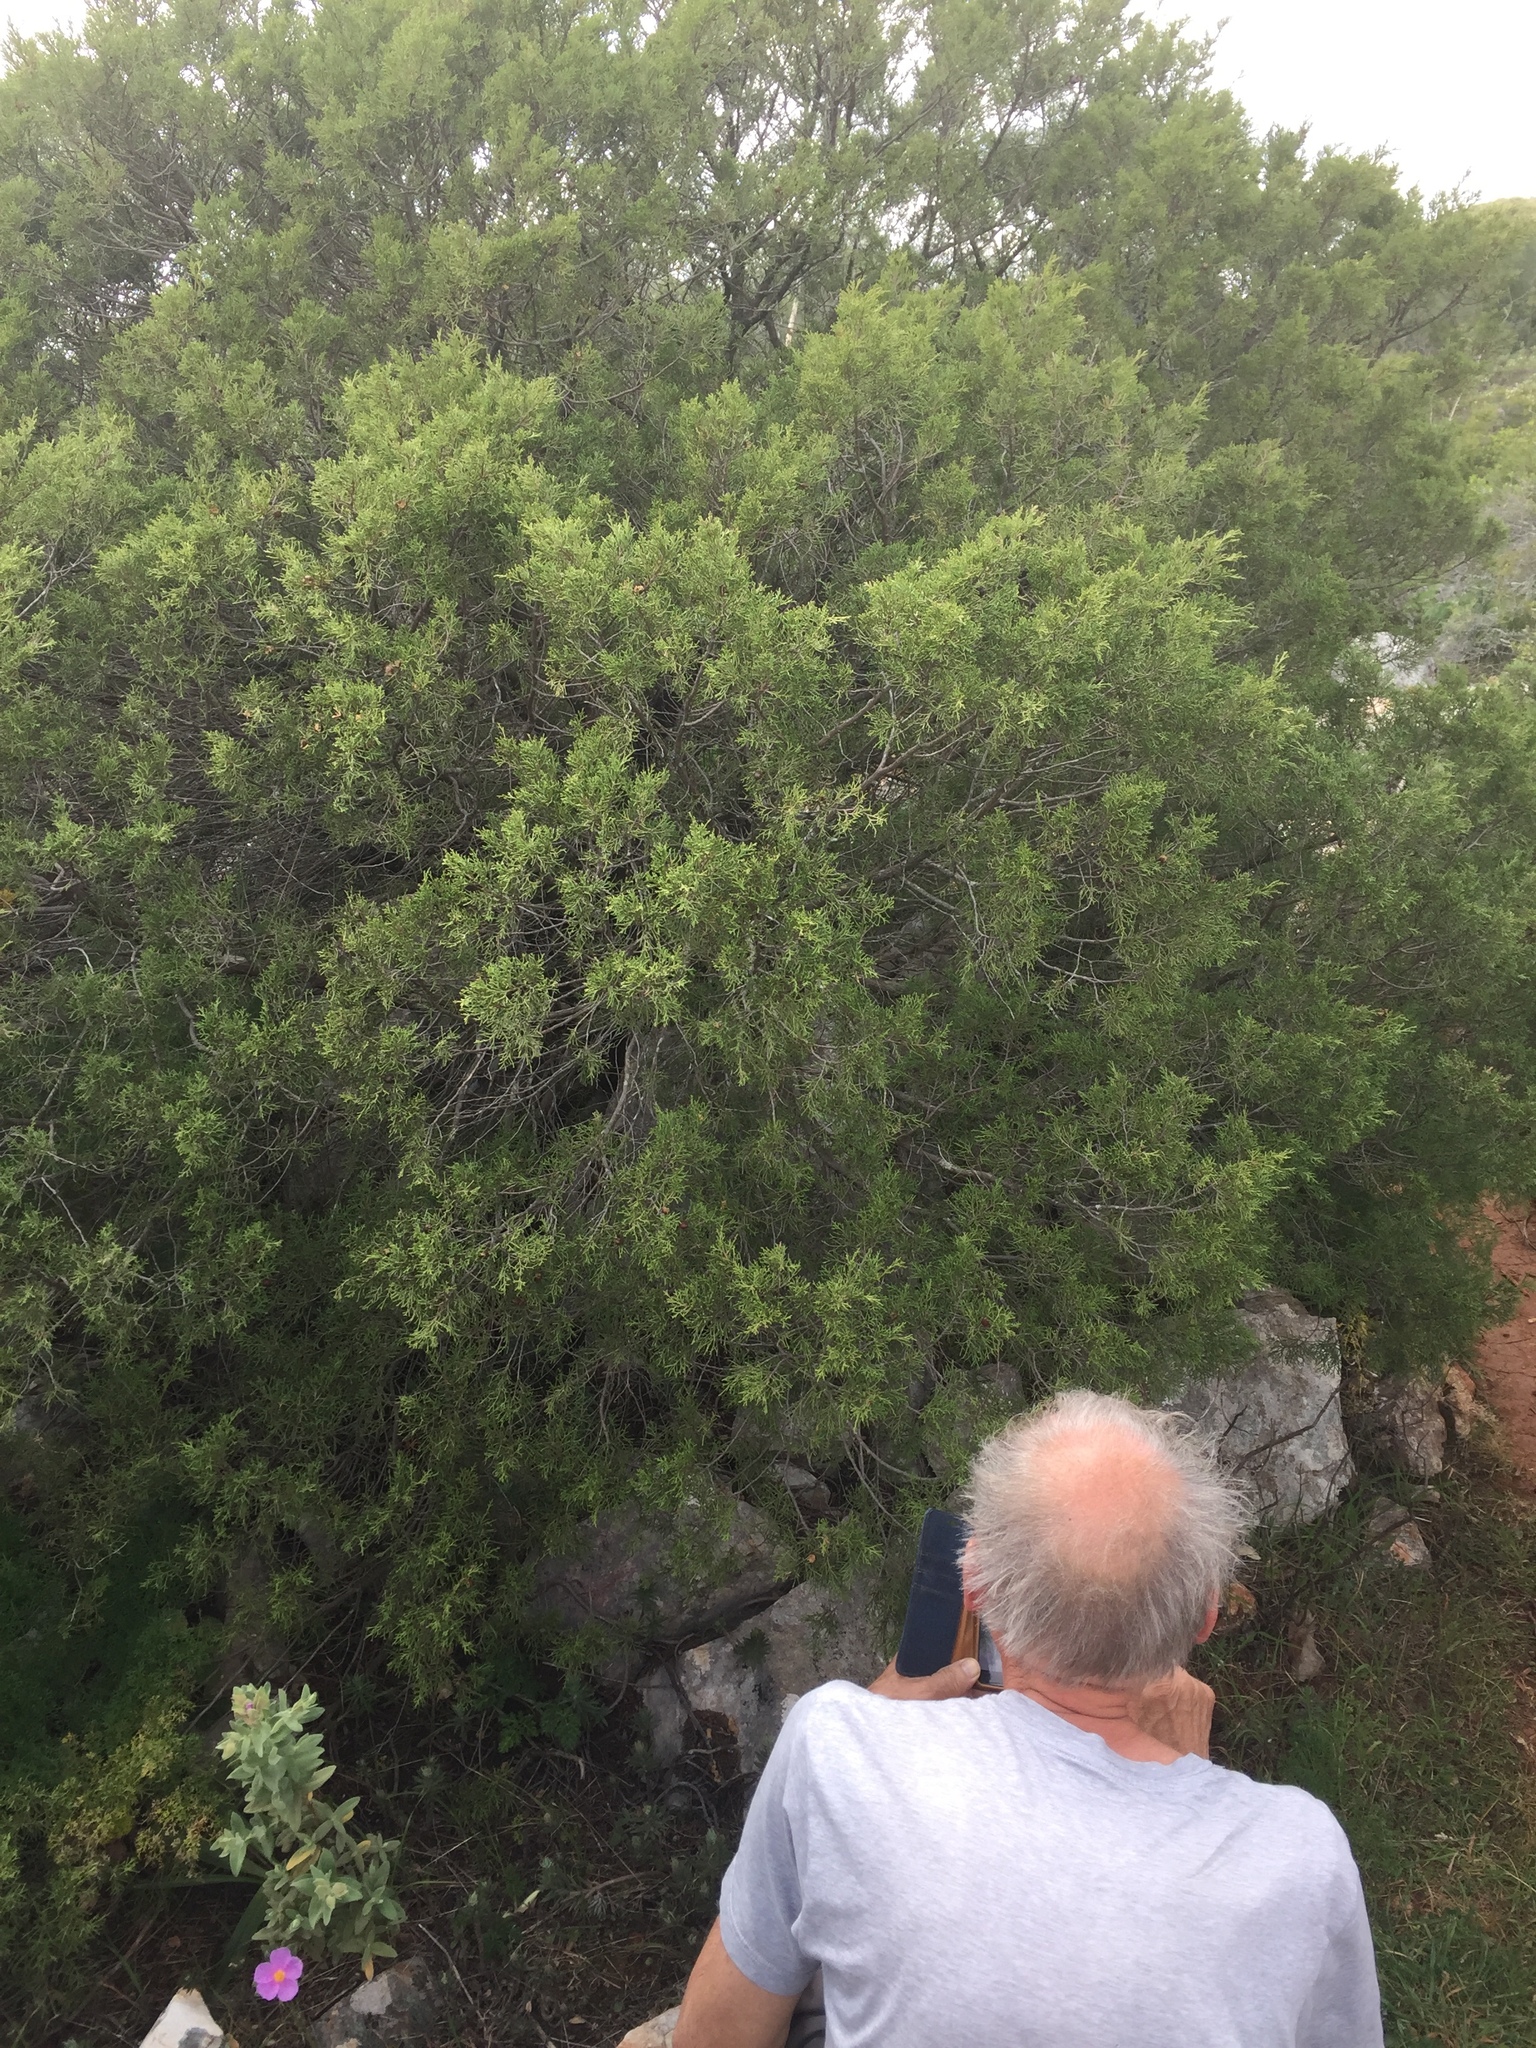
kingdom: Plantae
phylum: Tracheophyta
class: Pinopsida
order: Pinales
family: Cupressaceae
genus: Juniperus
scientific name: Juniperus phoenicea
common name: Phoenician juniper
